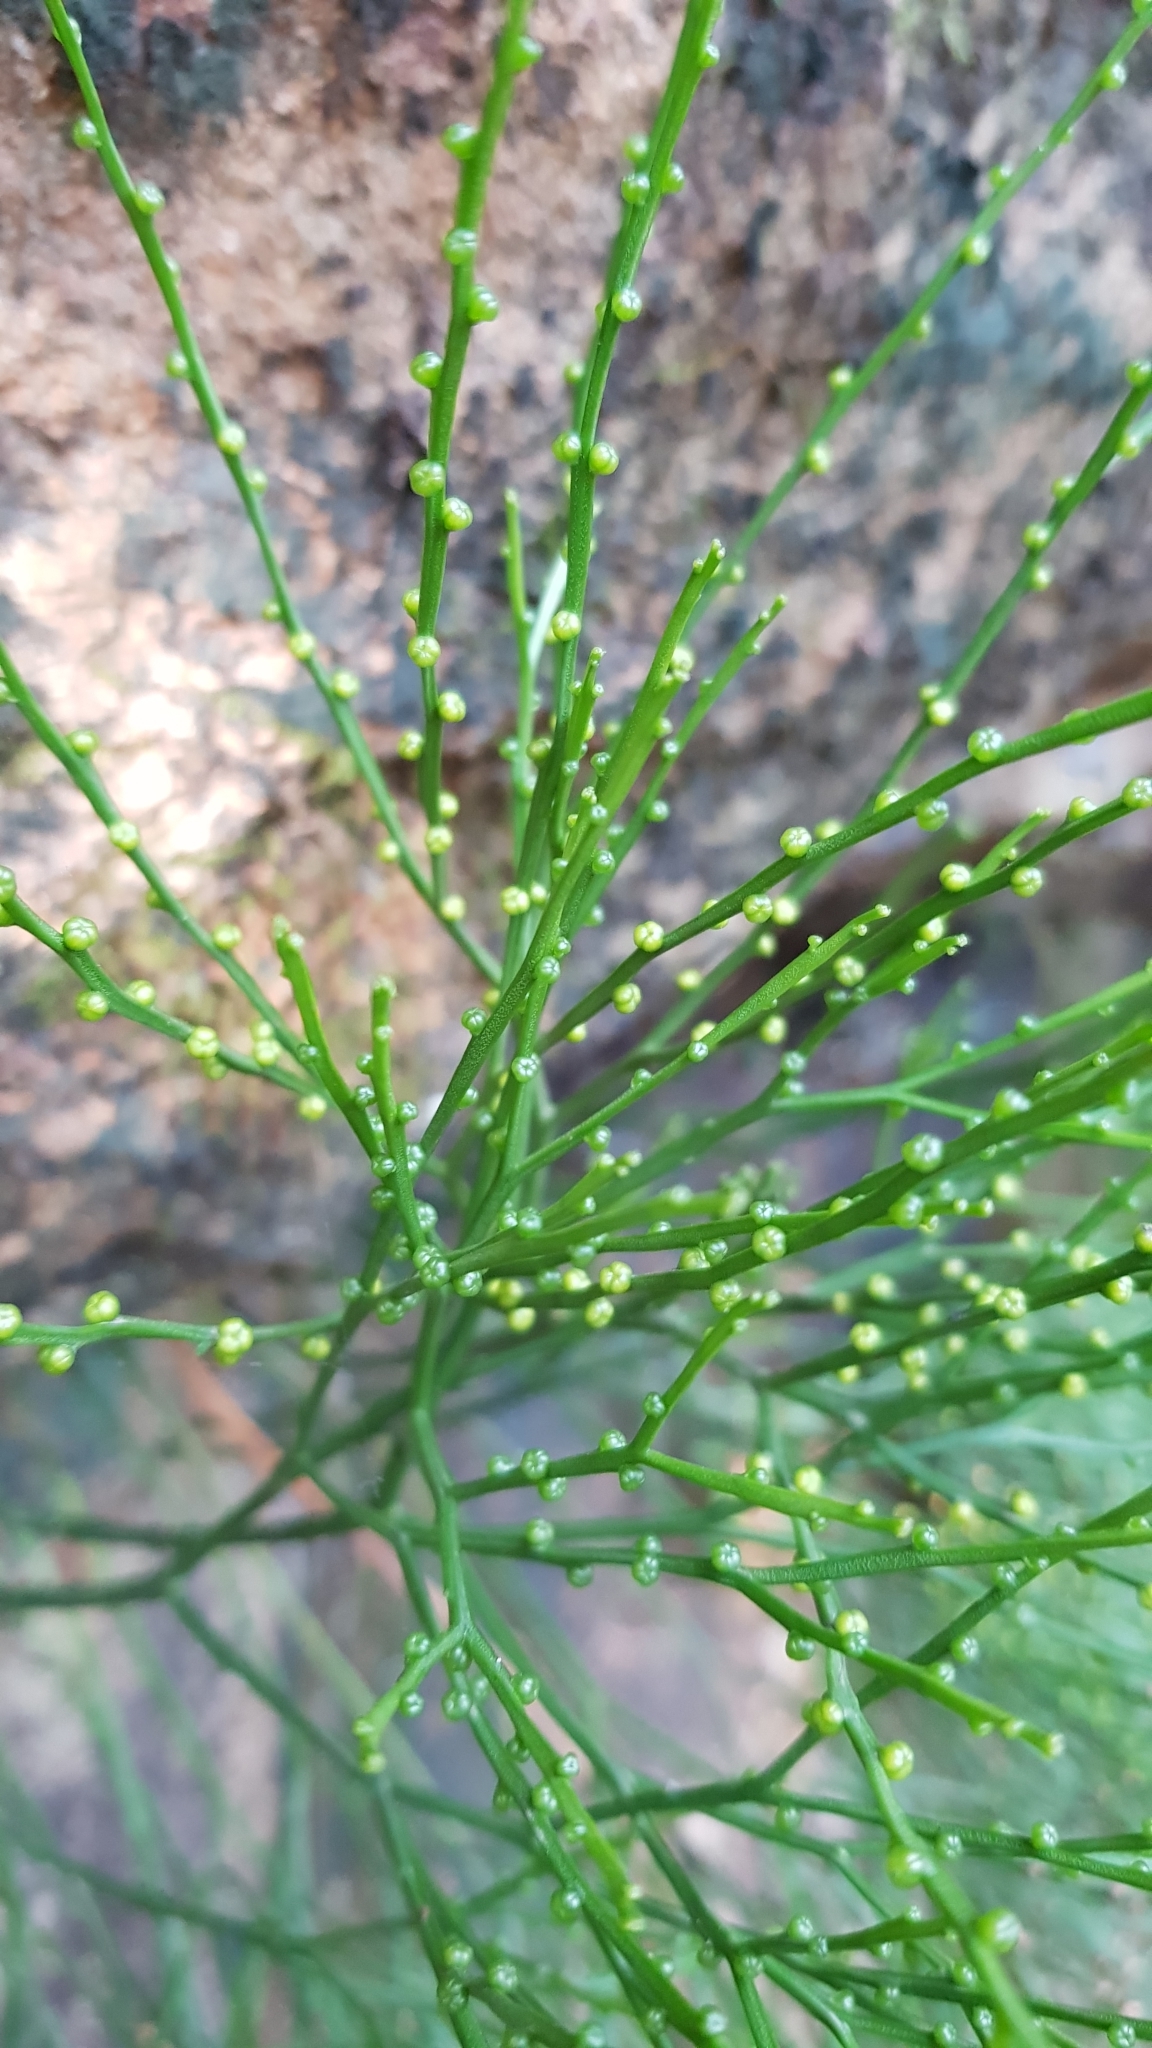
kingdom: Plantae
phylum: Tracheophyta
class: Polypodiopsida
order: Psilotales
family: Psilotaceae
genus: Psilotum
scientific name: Psilotum nudum
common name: Skeleton fork fern
